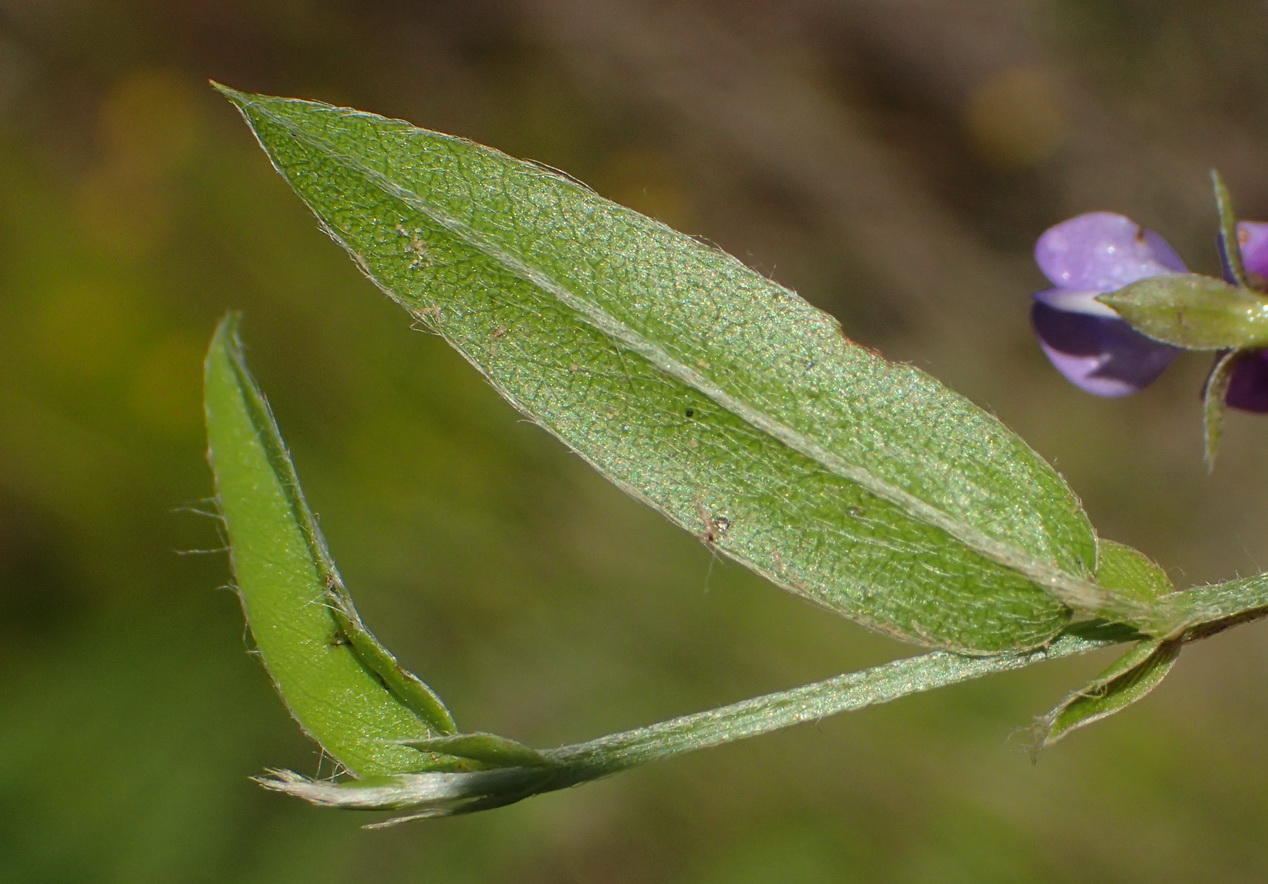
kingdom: Plantae
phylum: Tracheophyta
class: Magnoliopsida
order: Fabales
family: Fabaceae
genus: Psoralea
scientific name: Psoralea plauta
